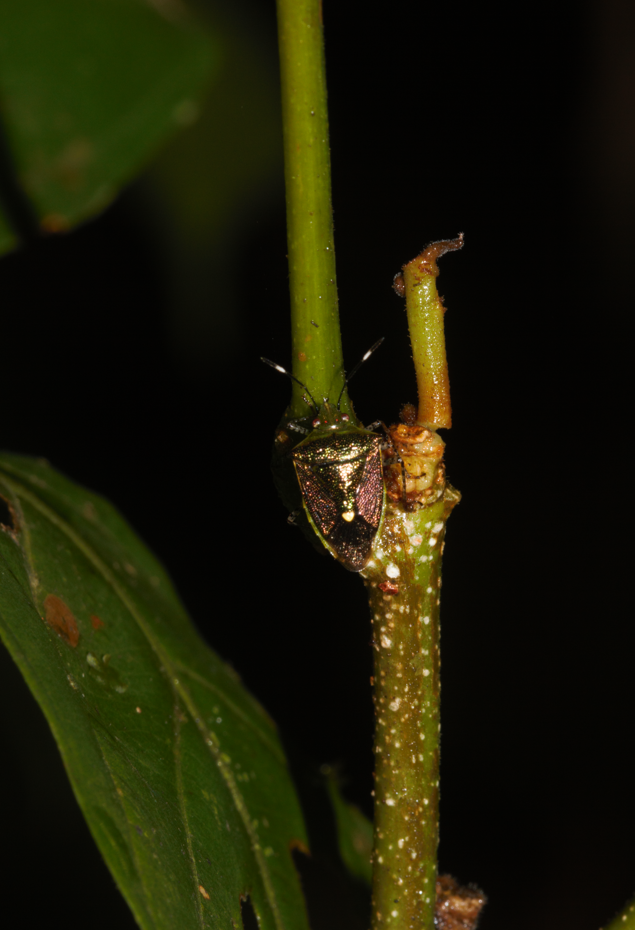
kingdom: Animalia
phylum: Arthropoda
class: Insecta
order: Hemiptera
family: Pentatomidae
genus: Mormidea
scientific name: Mormidea speciosa
